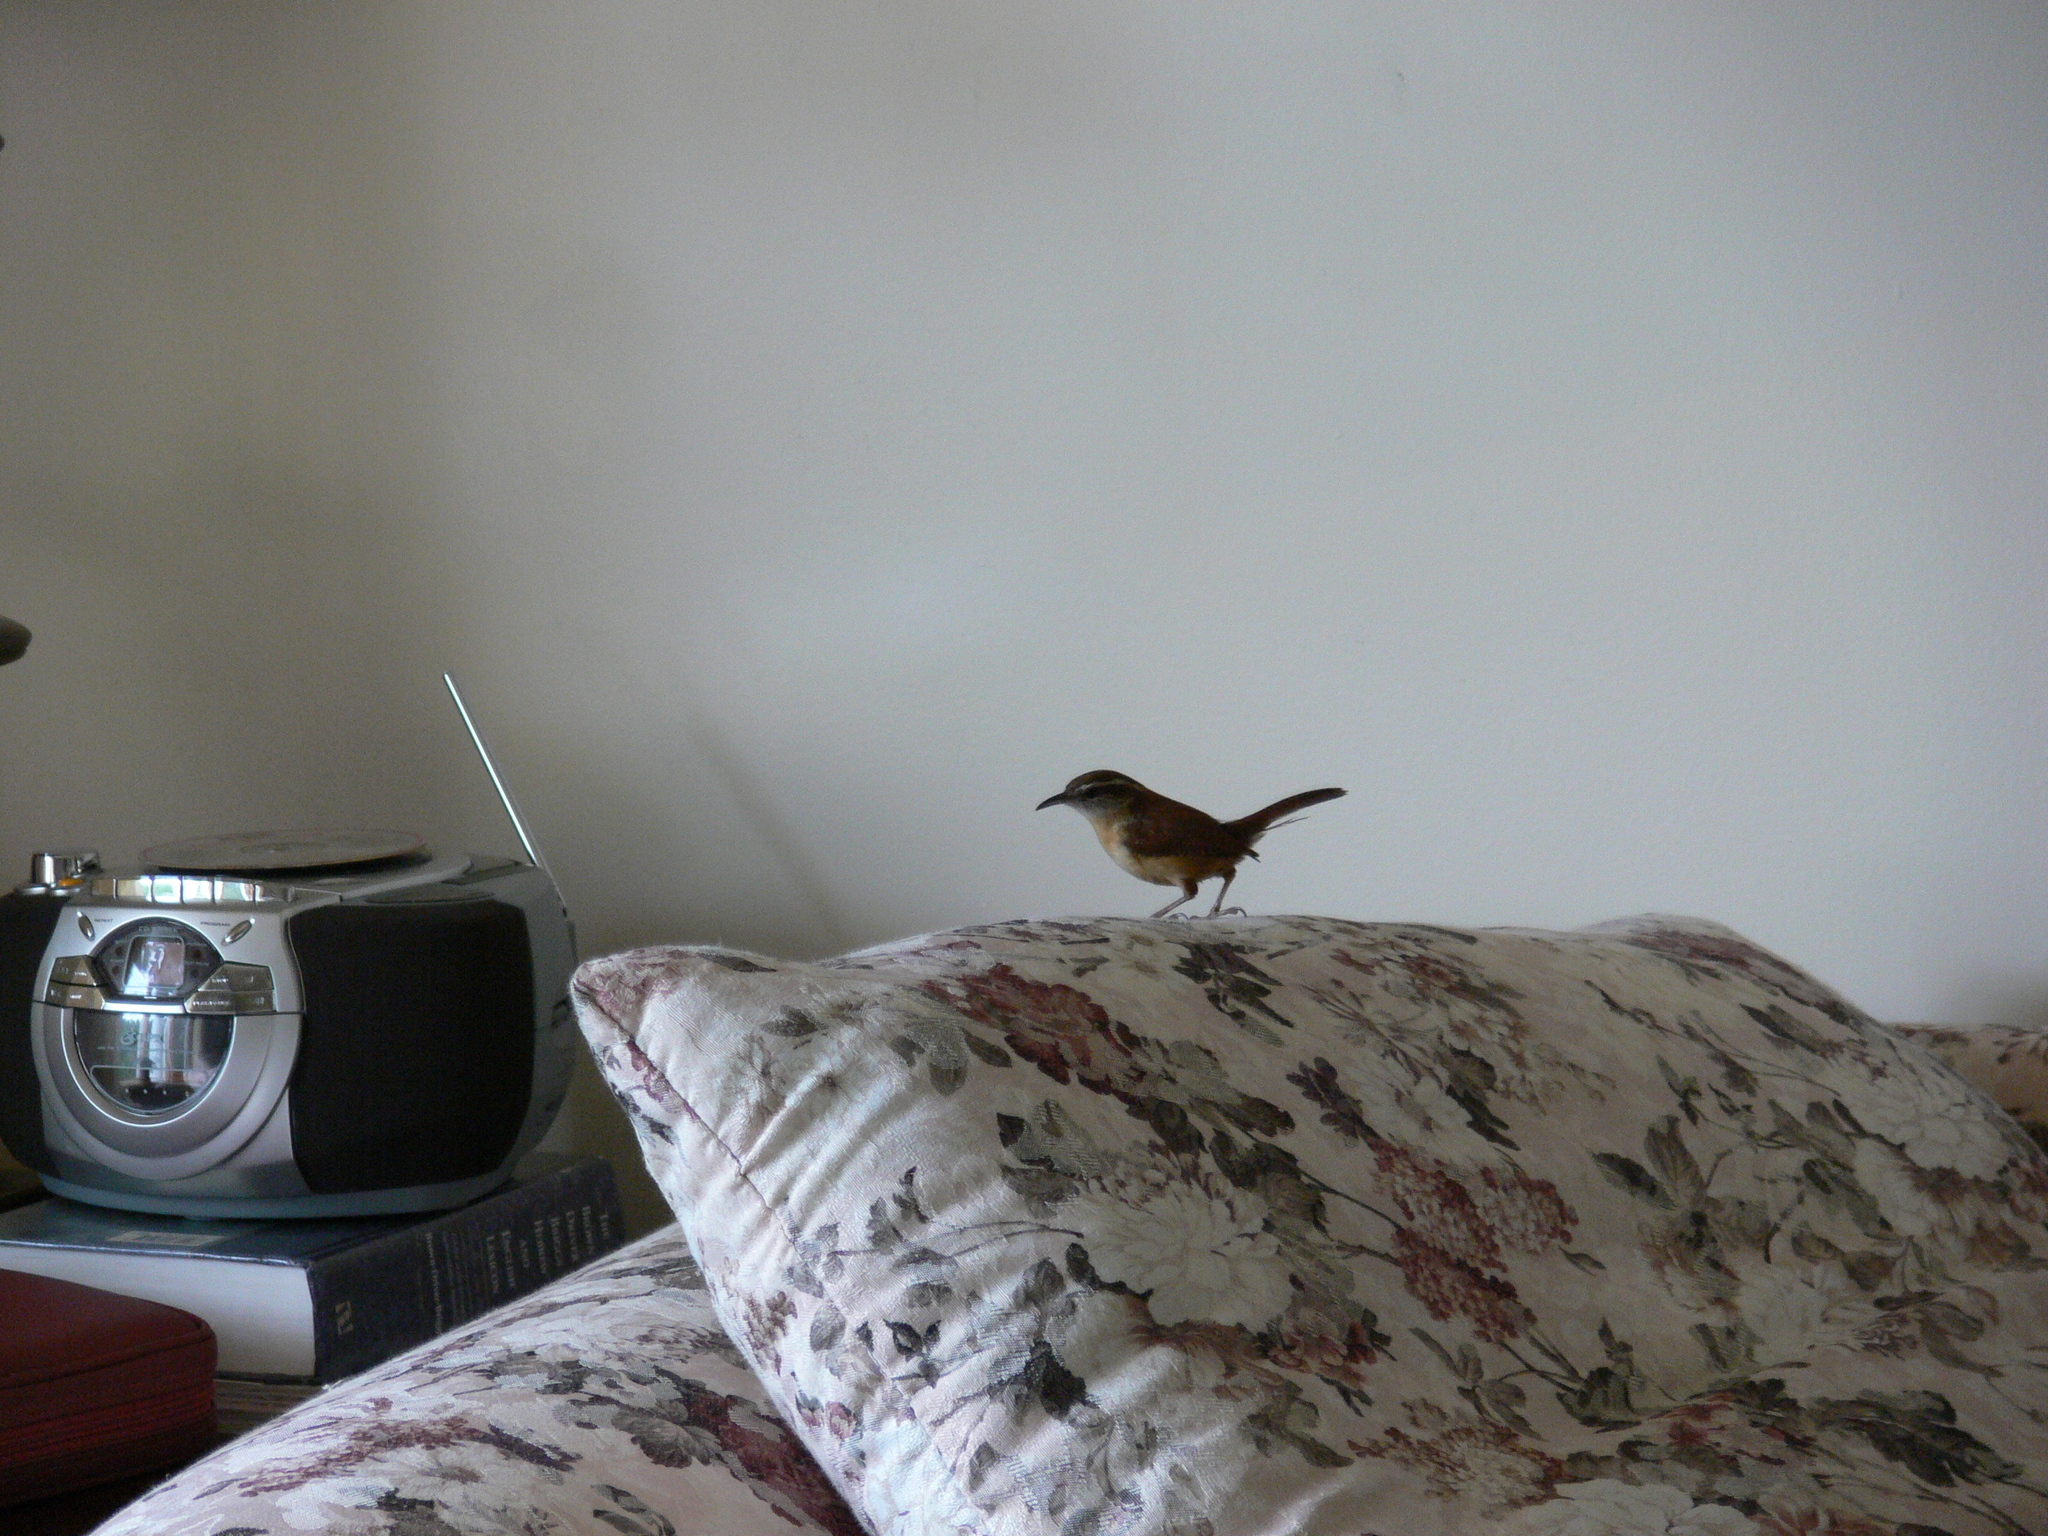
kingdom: Animalia
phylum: Chordata
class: Aves
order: Passeriformes
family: Troglodytidae
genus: Thryothorus
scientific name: Thryothorus ludovicianus
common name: Carolina wren
